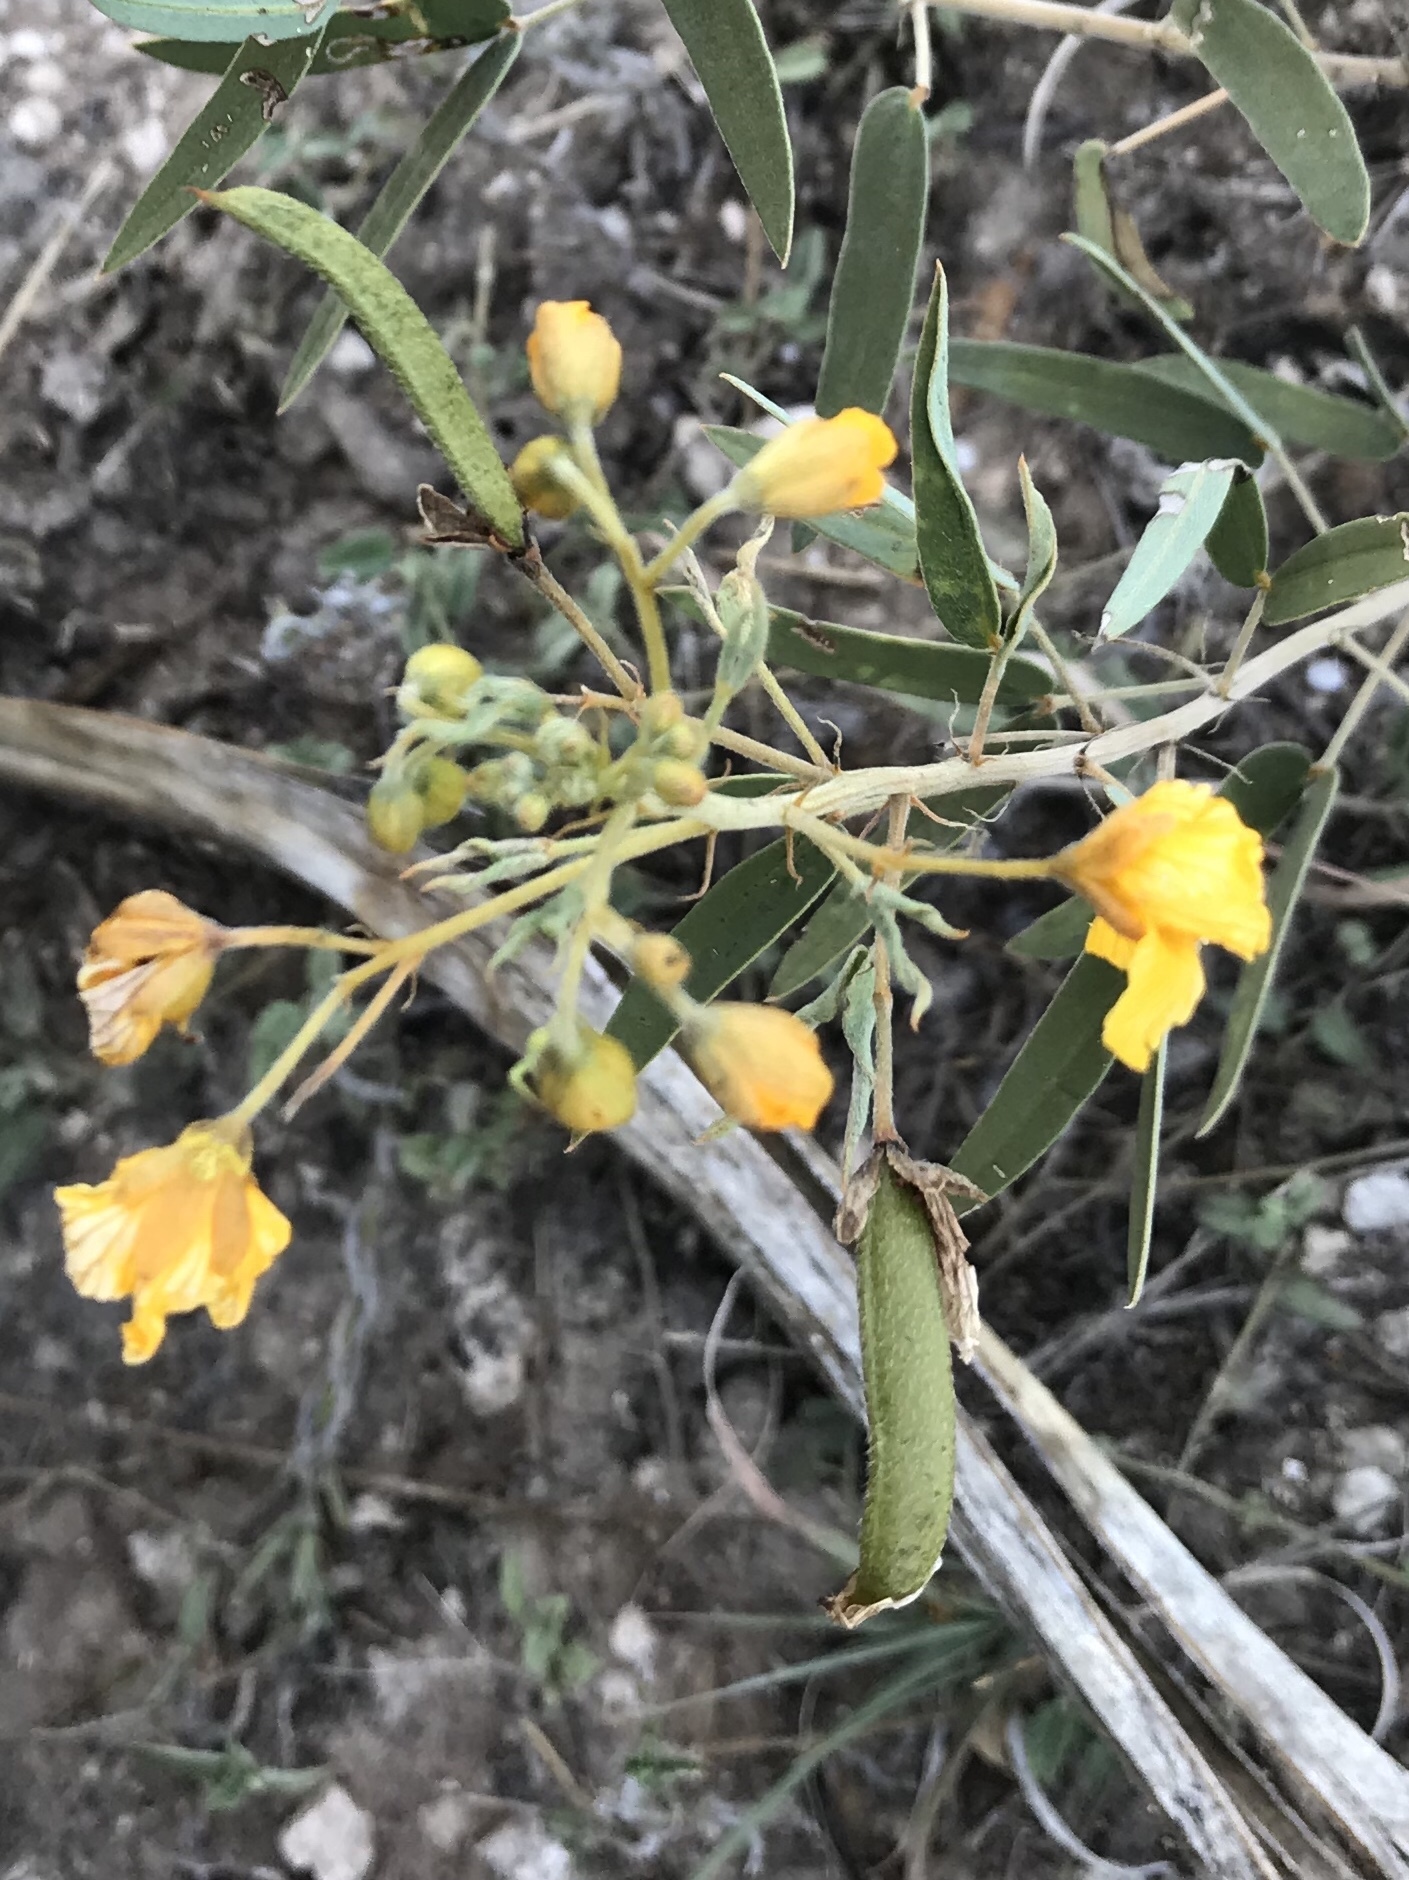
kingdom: Plantae
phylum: Tracheophyta
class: Magnoliopsida
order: Fabales
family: Fabaceae
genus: Senna
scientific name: Senna roemeriana
